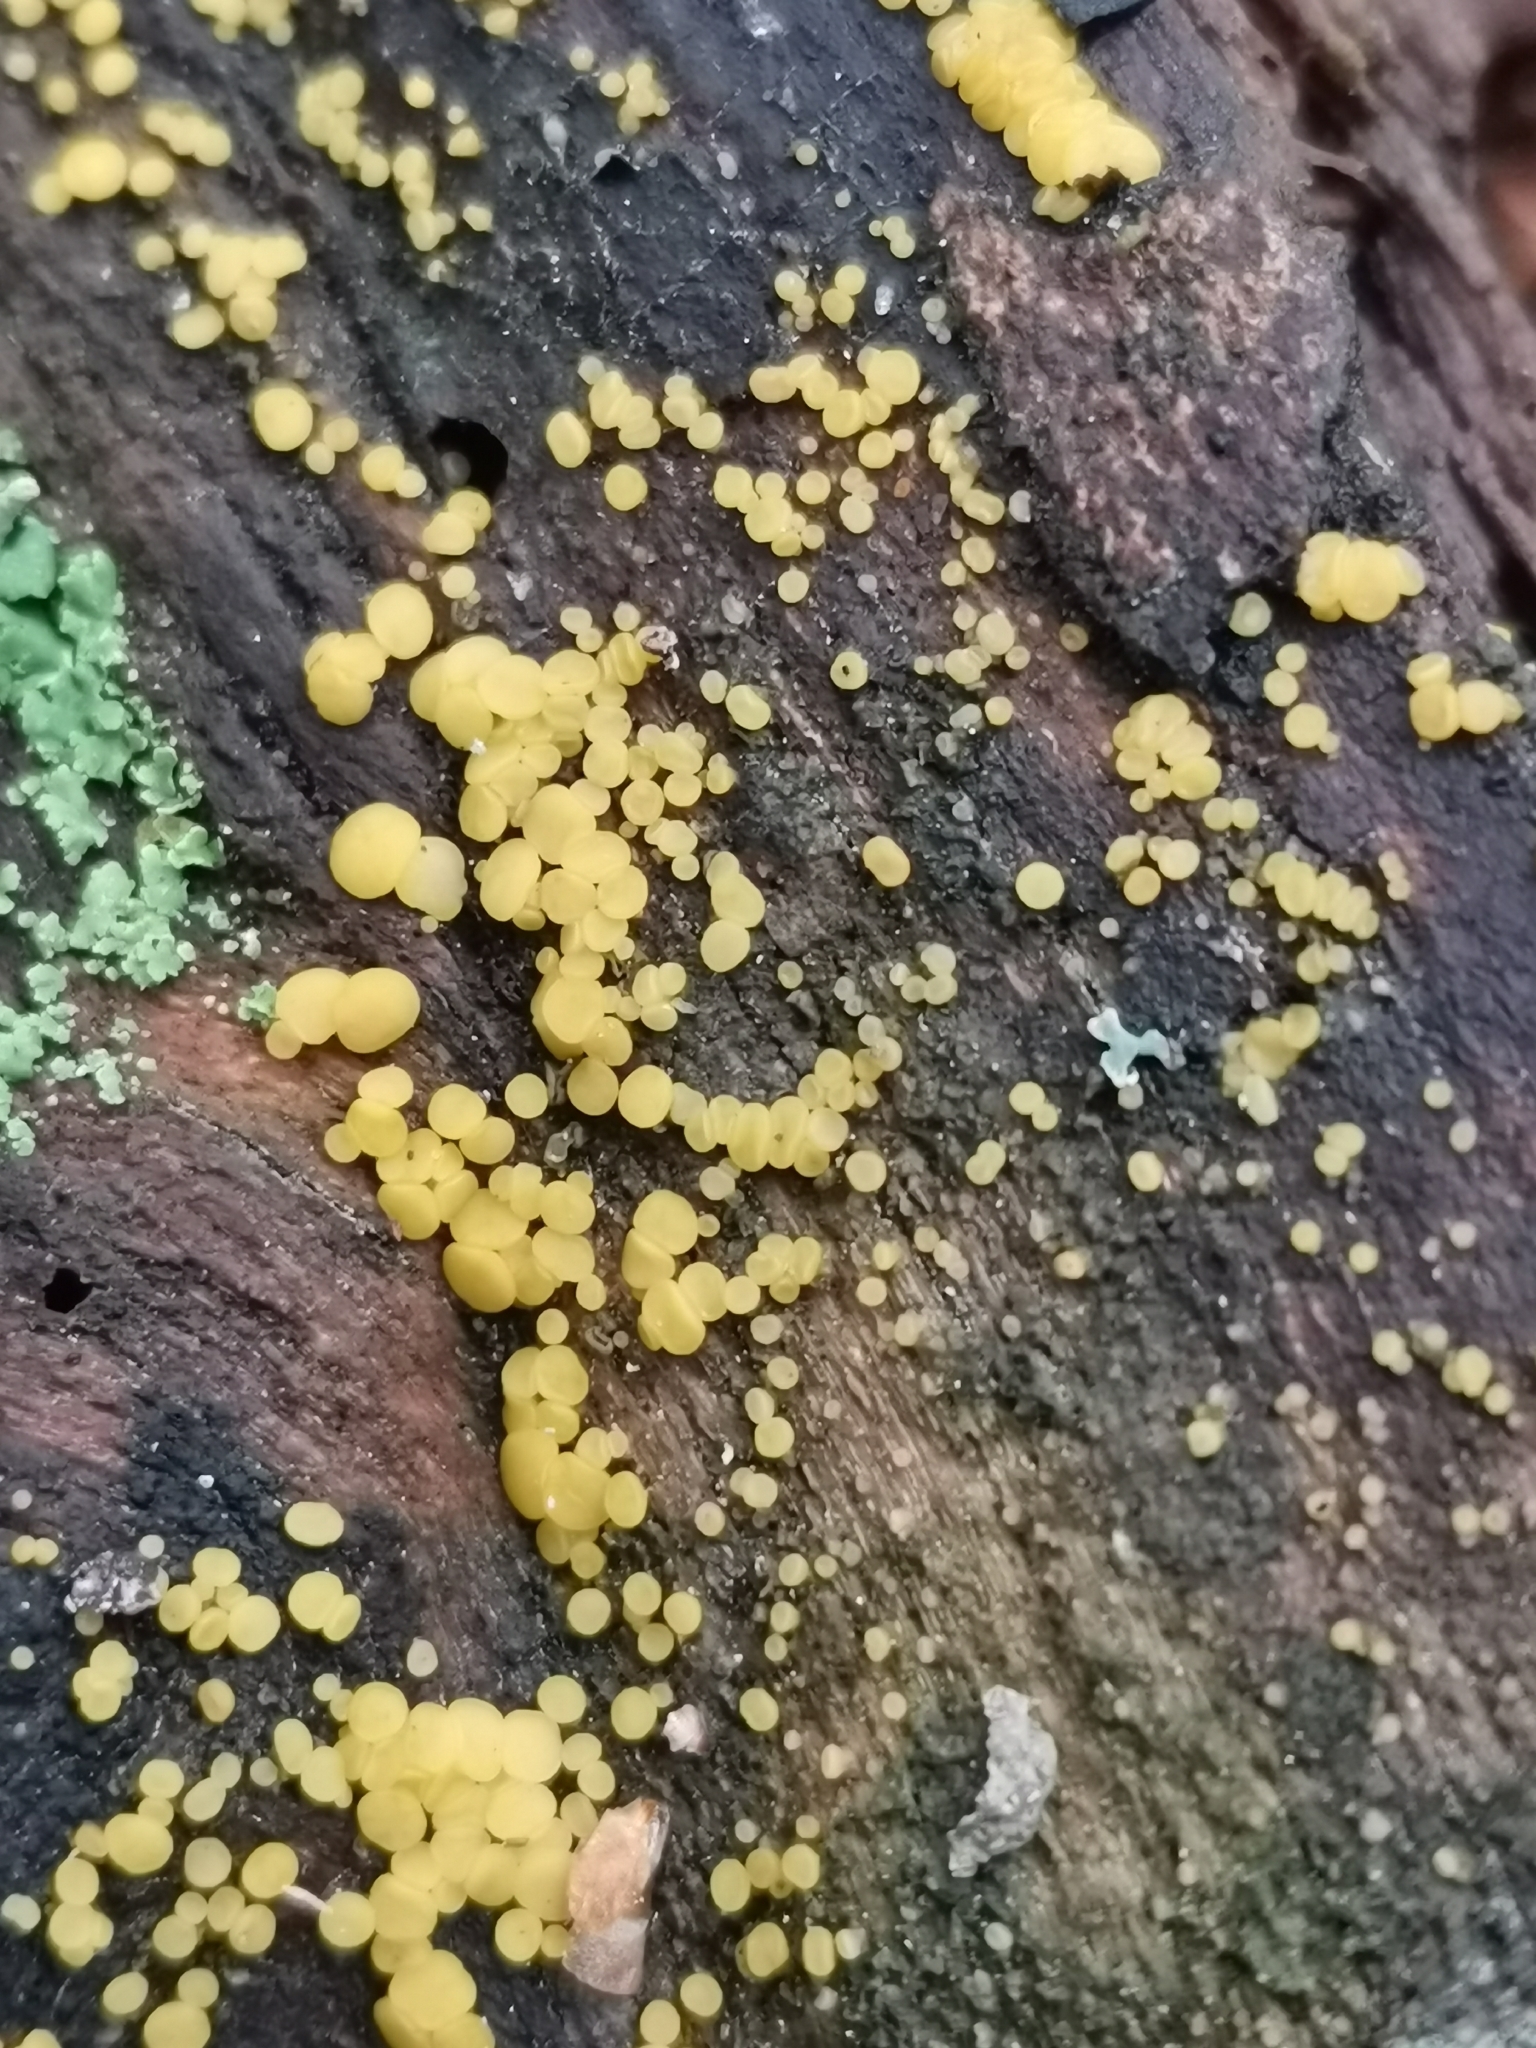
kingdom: Fungi
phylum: Ascomycota
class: Leotiomycetes
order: Helotiales
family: Pezizellaceae
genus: Calycina
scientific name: Calycina citrina
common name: Yellow fairy cups
